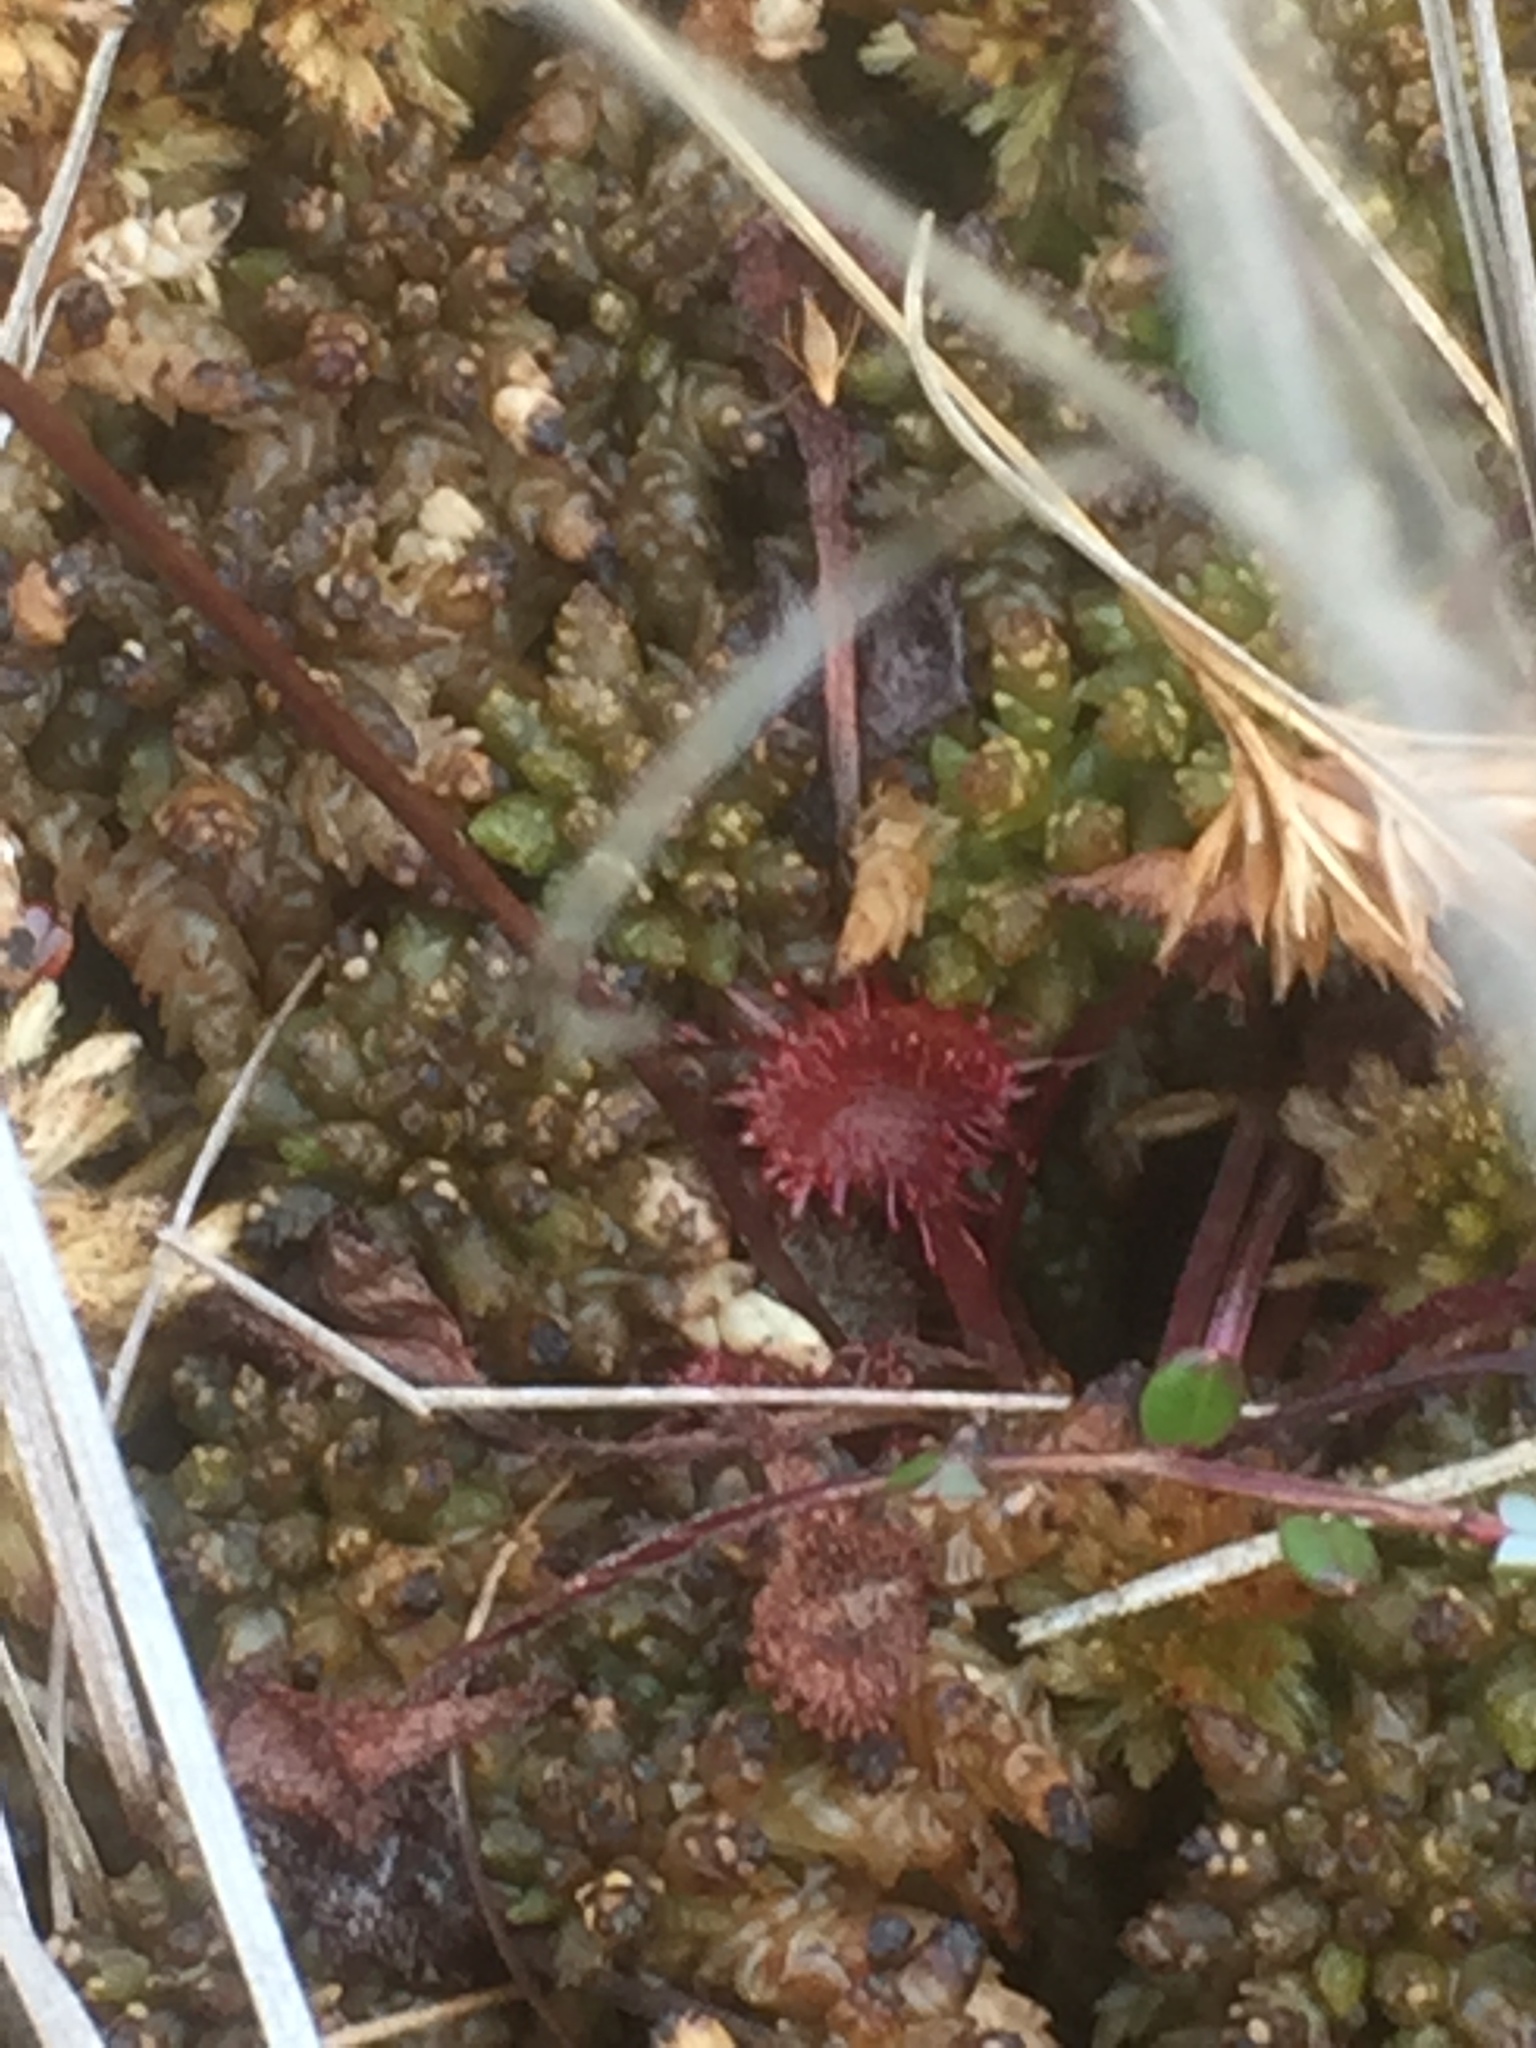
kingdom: Plantae
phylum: Tracheophyta
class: Magnoliopsida
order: Caryophyllales
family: Droseraceae
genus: Drosera
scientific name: Drosera rotundifolia
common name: Round-leaved sundew
